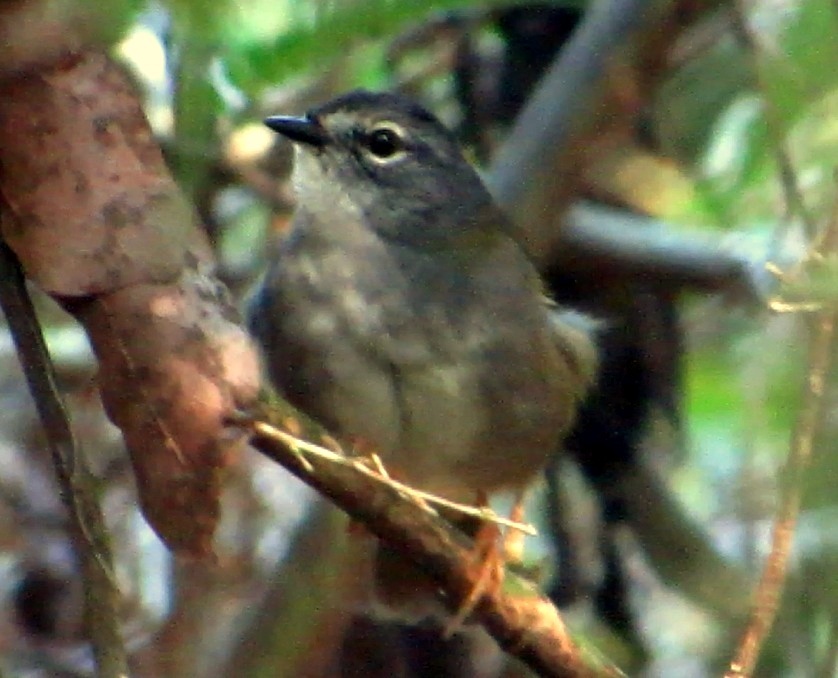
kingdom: Animalia
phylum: Chordata
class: Aves
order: Passeriformes
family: Parulidae
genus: Myiothlypis
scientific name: Myiothlypis leucoblephara
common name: White-rimmed warbler
